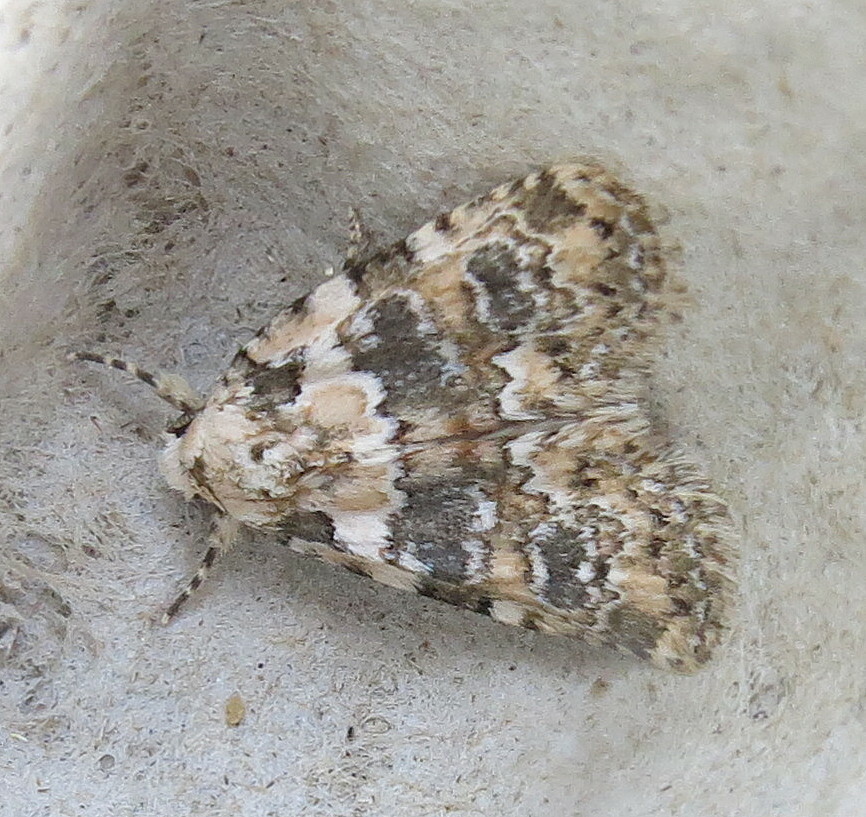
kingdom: Animalia
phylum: Arthropoda
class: Insecta
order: Lepidoptera
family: Noctuidae
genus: Bryophila
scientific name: Bryophila domestica
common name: Marbled beauty
